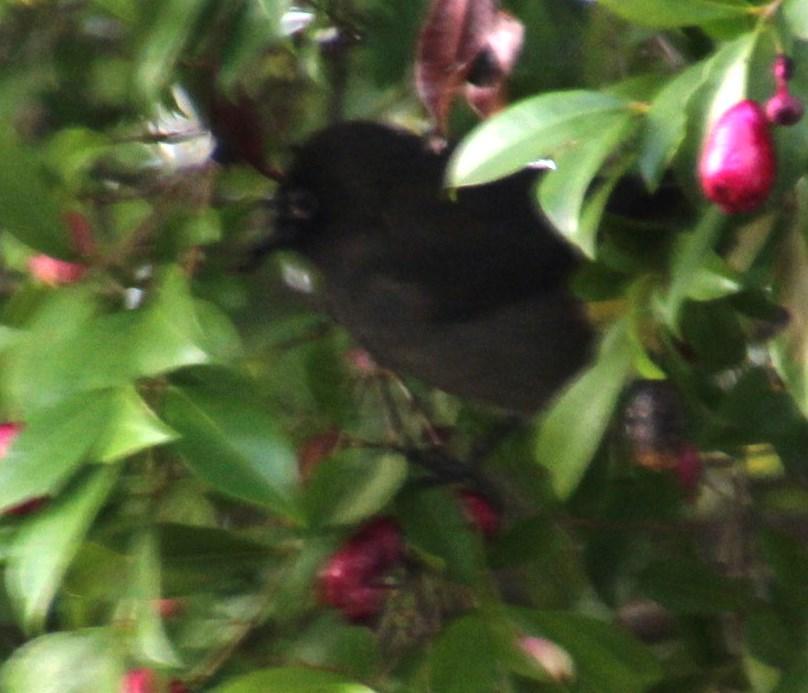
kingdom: Animalia
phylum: Chordata
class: Aves
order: Passeriformes
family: Zosteropidae
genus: Zosterops
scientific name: Zosterops virens
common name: Cape white-eye
